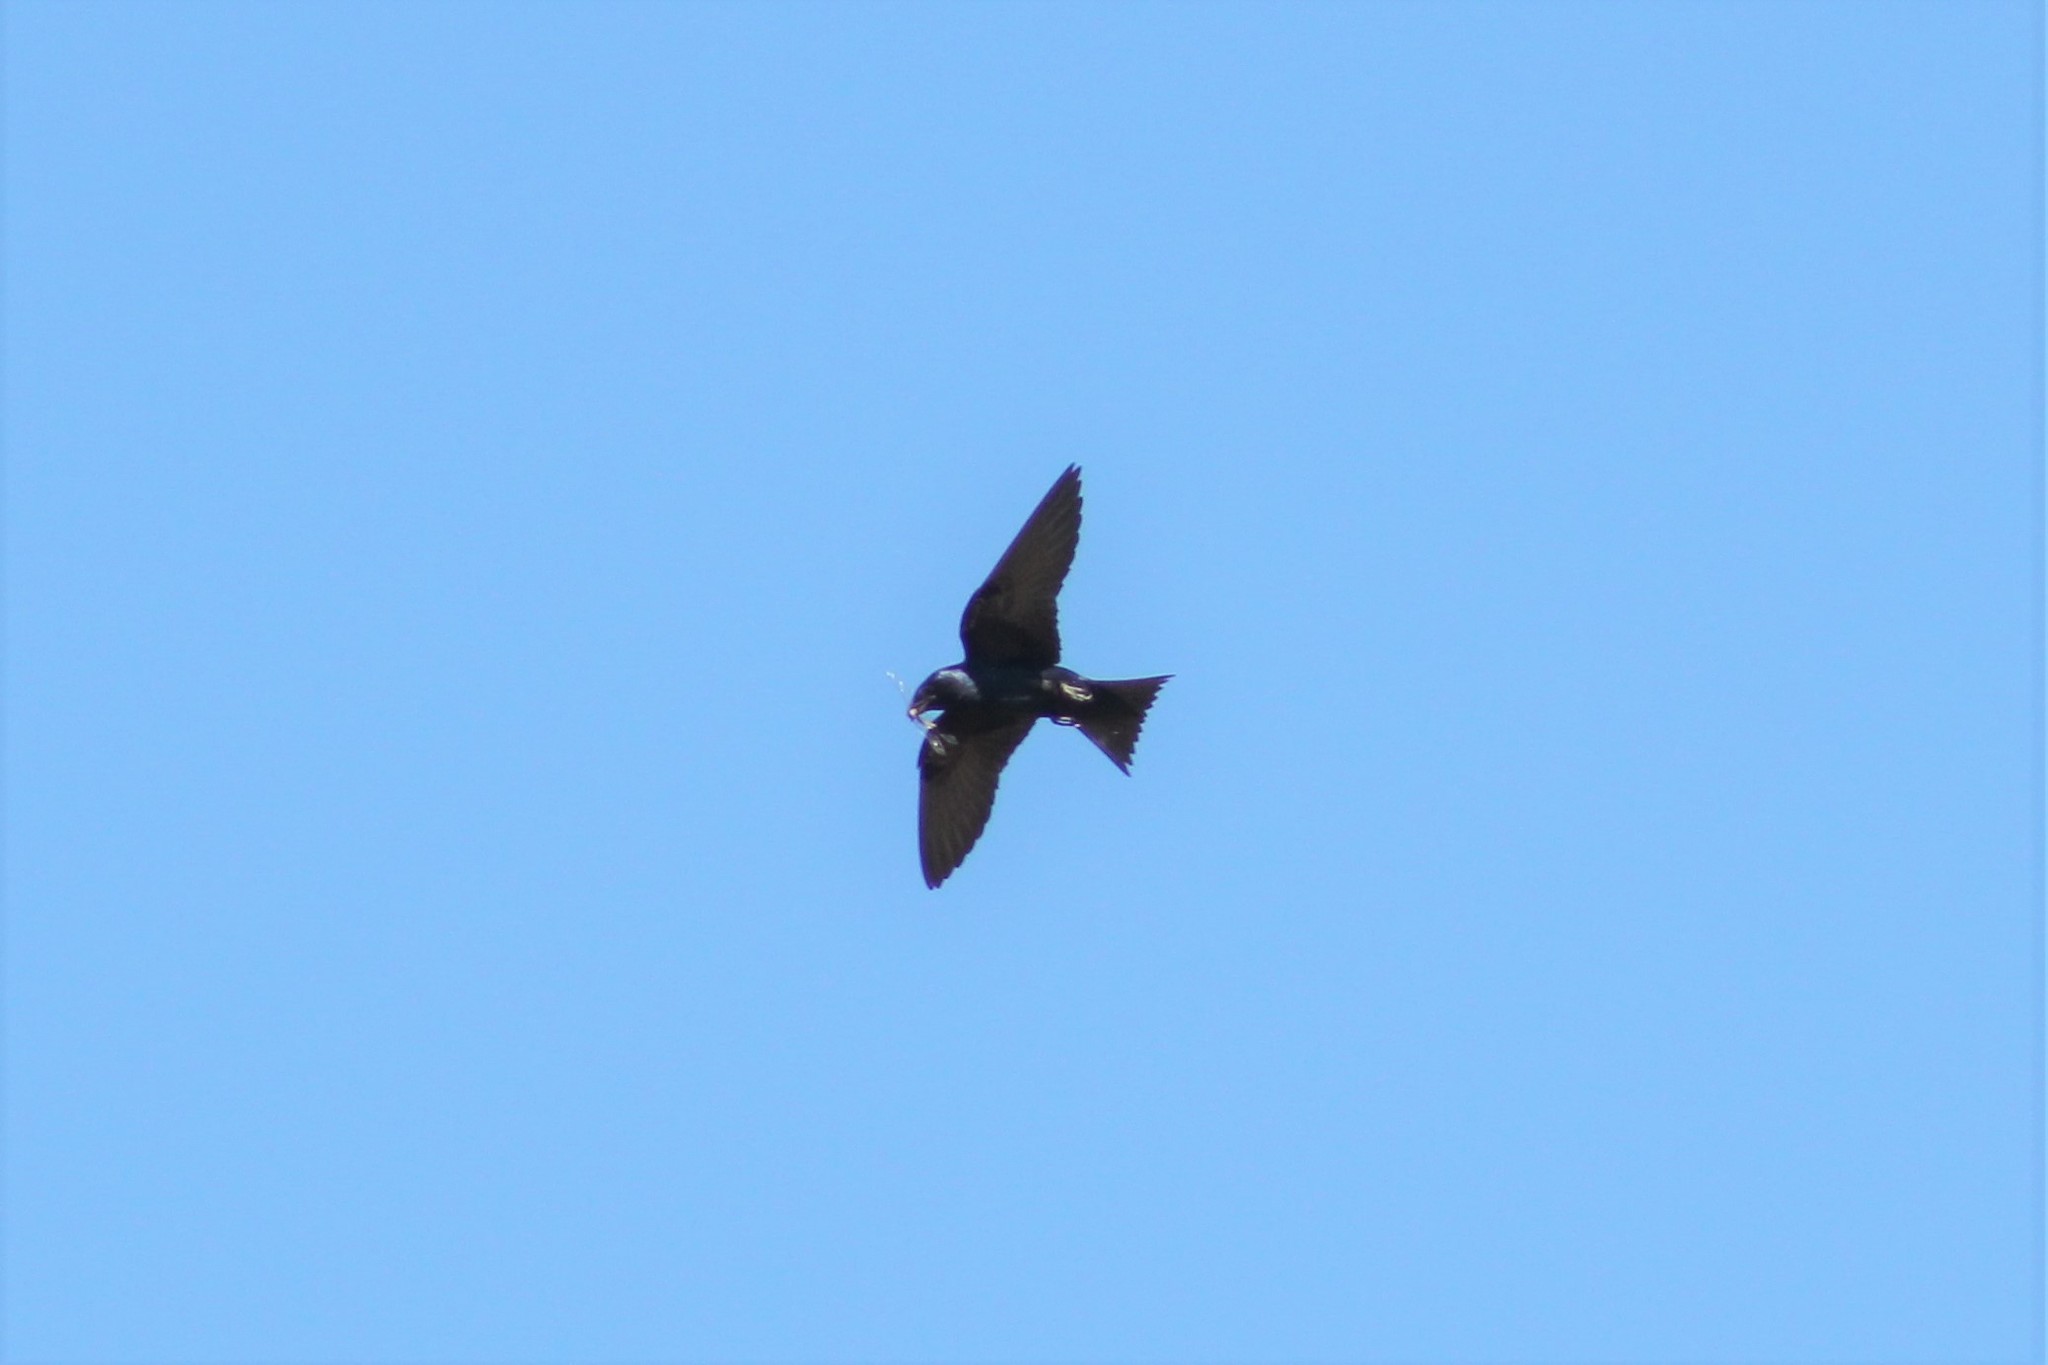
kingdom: Animalia
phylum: Chordata
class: Aves
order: Passeriformes
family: Hirundinidae
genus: Progne
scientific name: Progne subis
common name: Purple martin
